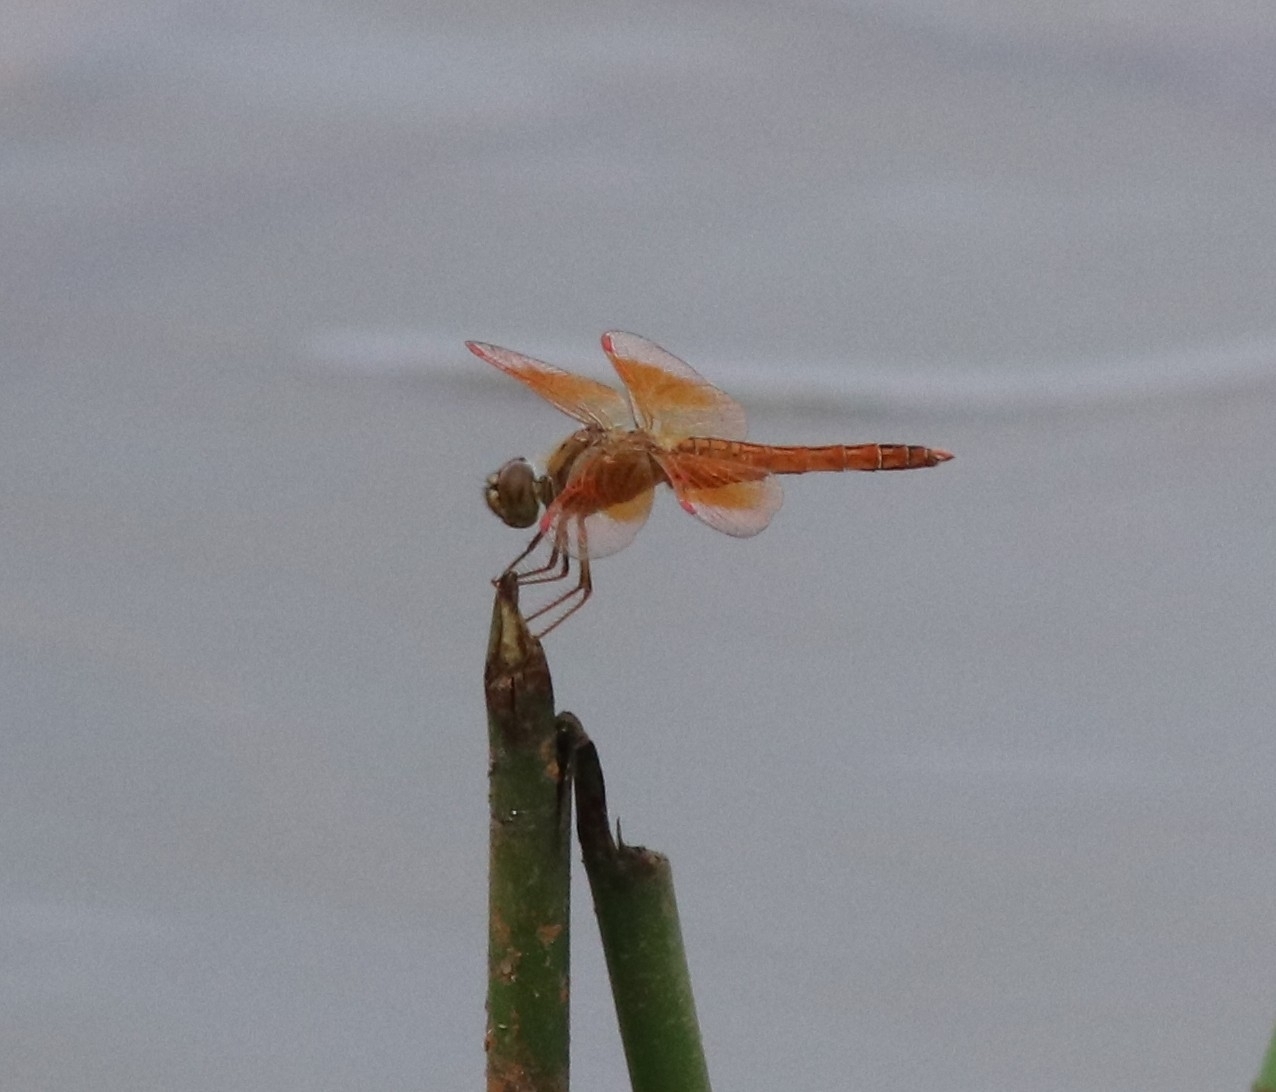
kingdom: Animalia
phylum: Arthropoda
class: Insecta
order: Odonata
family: Libellulidae
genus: Brachythemis
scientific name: Brachythemis contaminata
